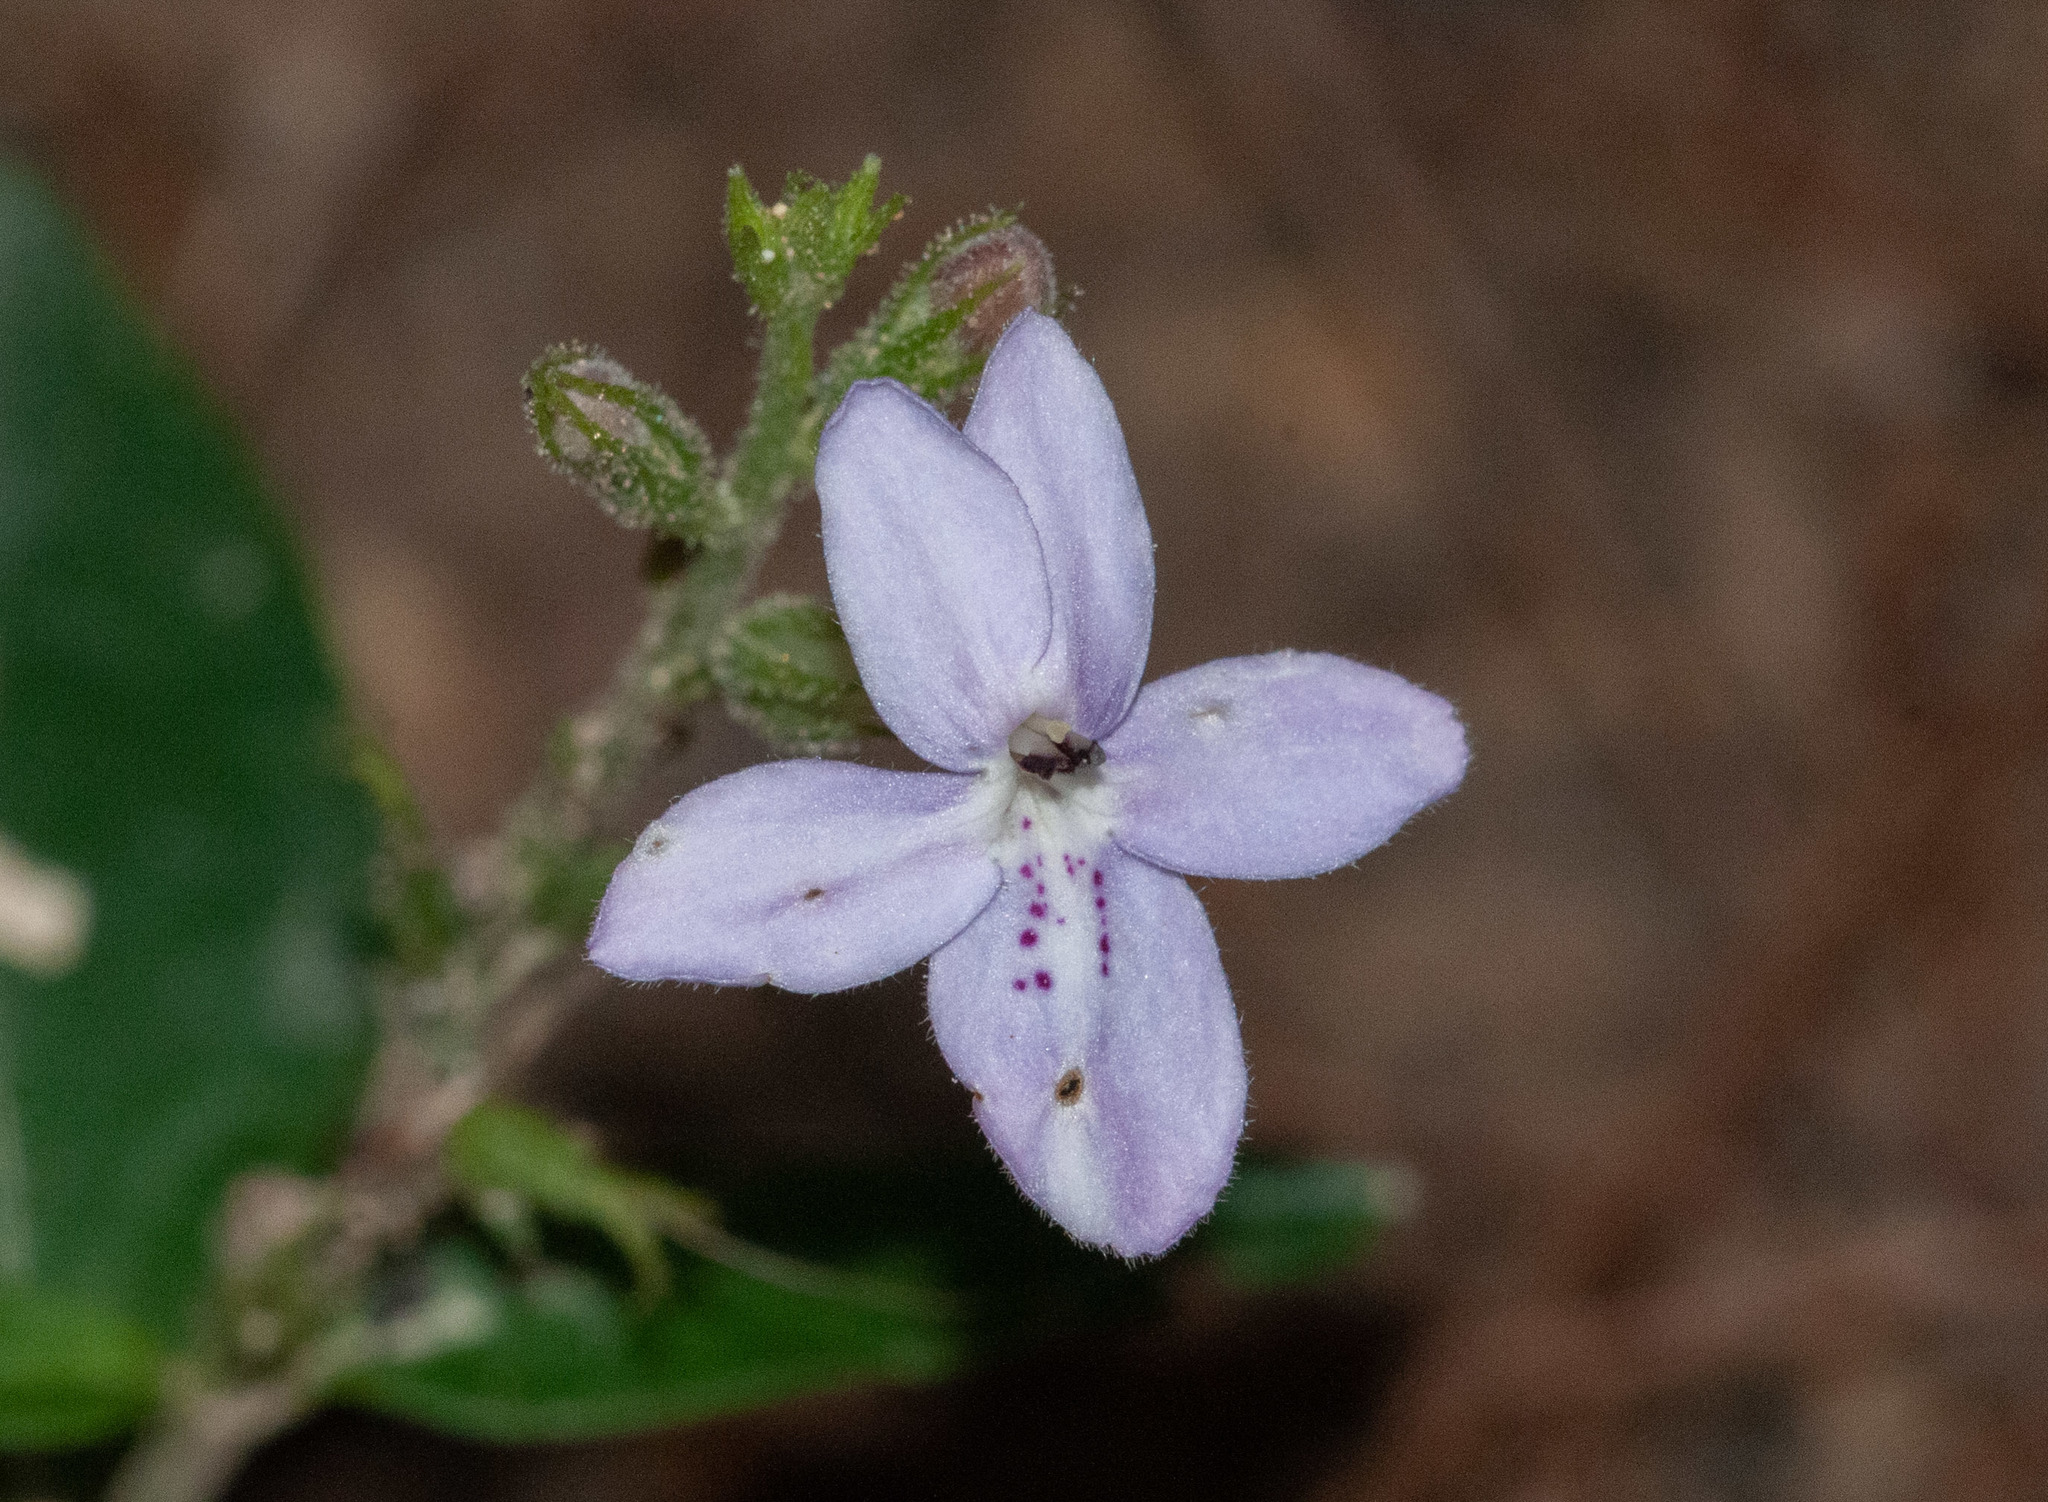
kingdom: Plantae
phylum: Tracheophyta
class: Magnoliopsida
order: Lamiales
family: Acanthaceae
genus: Pseuderanthemum
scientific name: Pseuderanthemum variabile
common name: Night and afternoon
